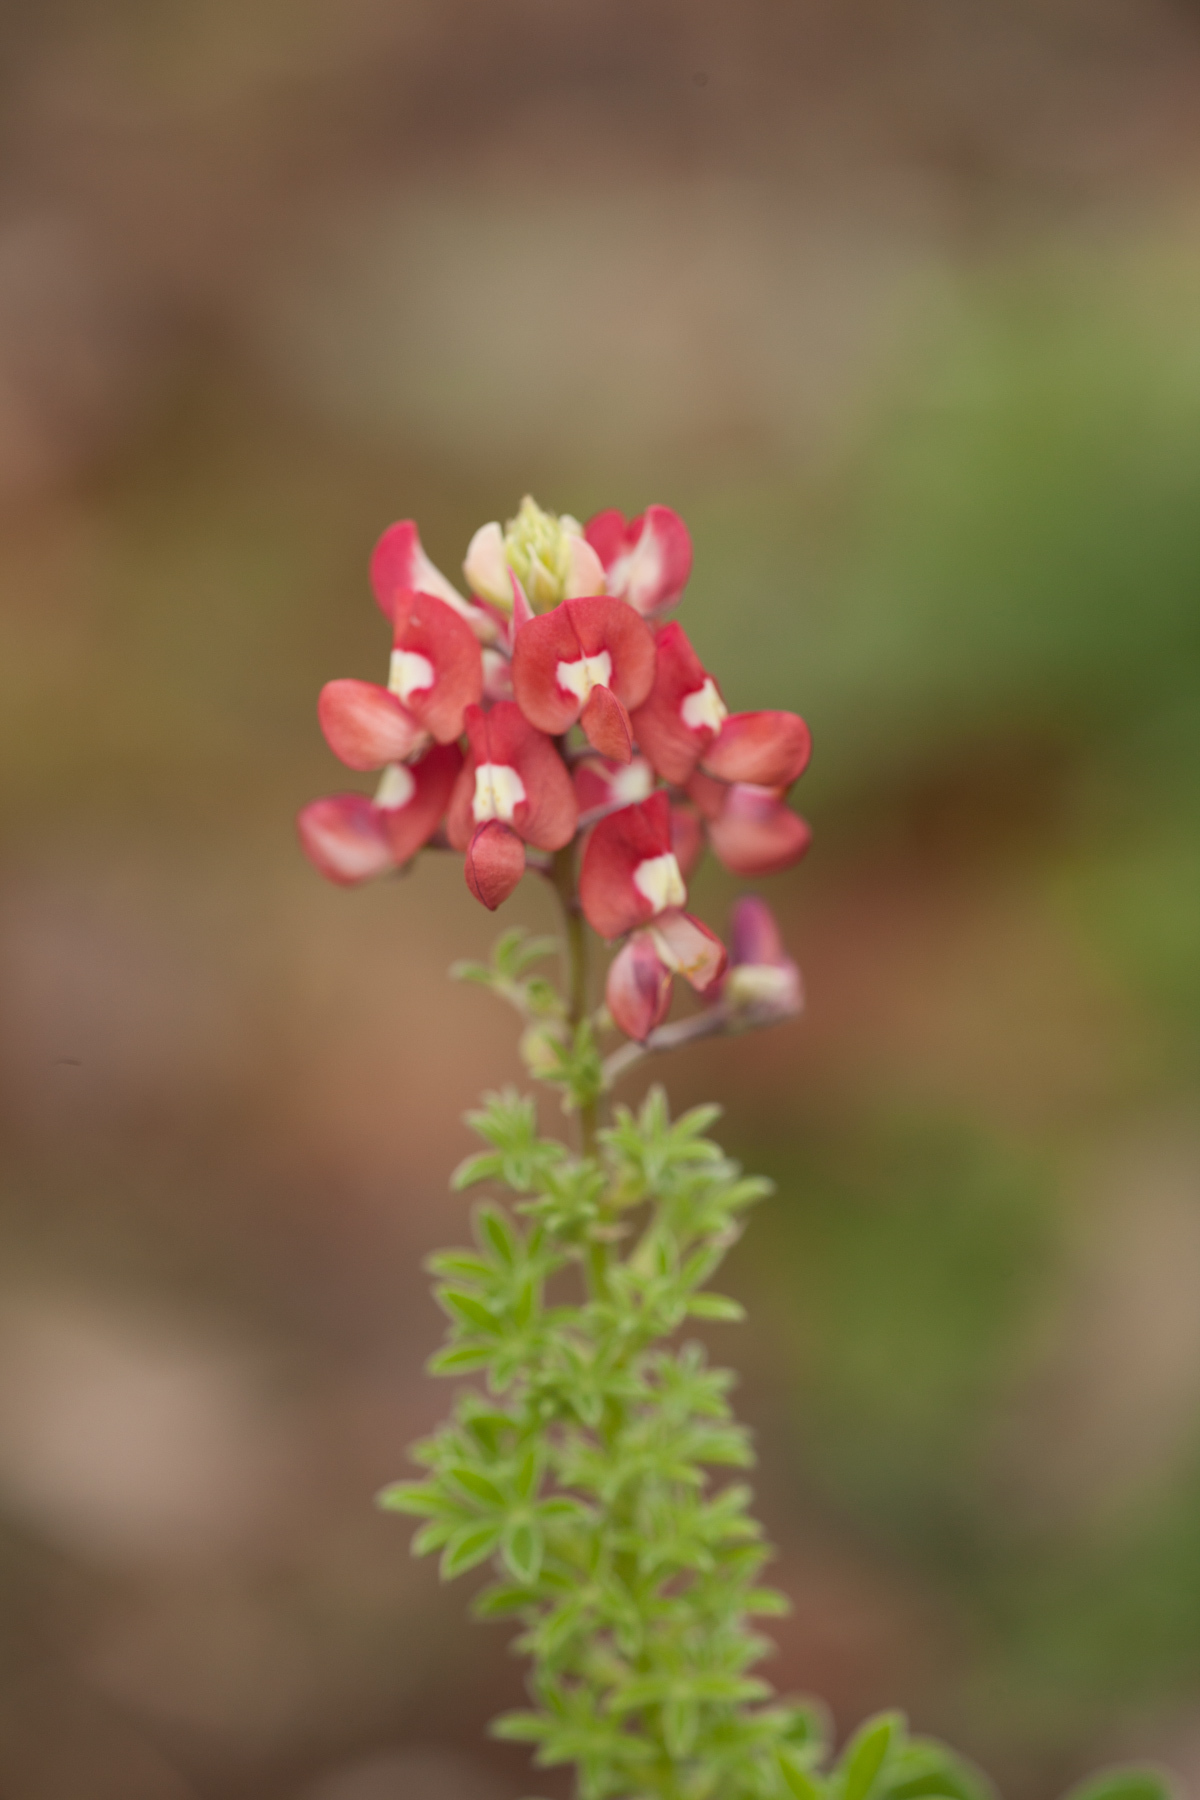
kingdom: Plantae
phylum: Tracheophyta
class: Magnoliopsida
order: Fabales
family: Fabaceae
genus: Lupinus
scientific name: Lupinus texensis
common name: Texas bluebonnet
